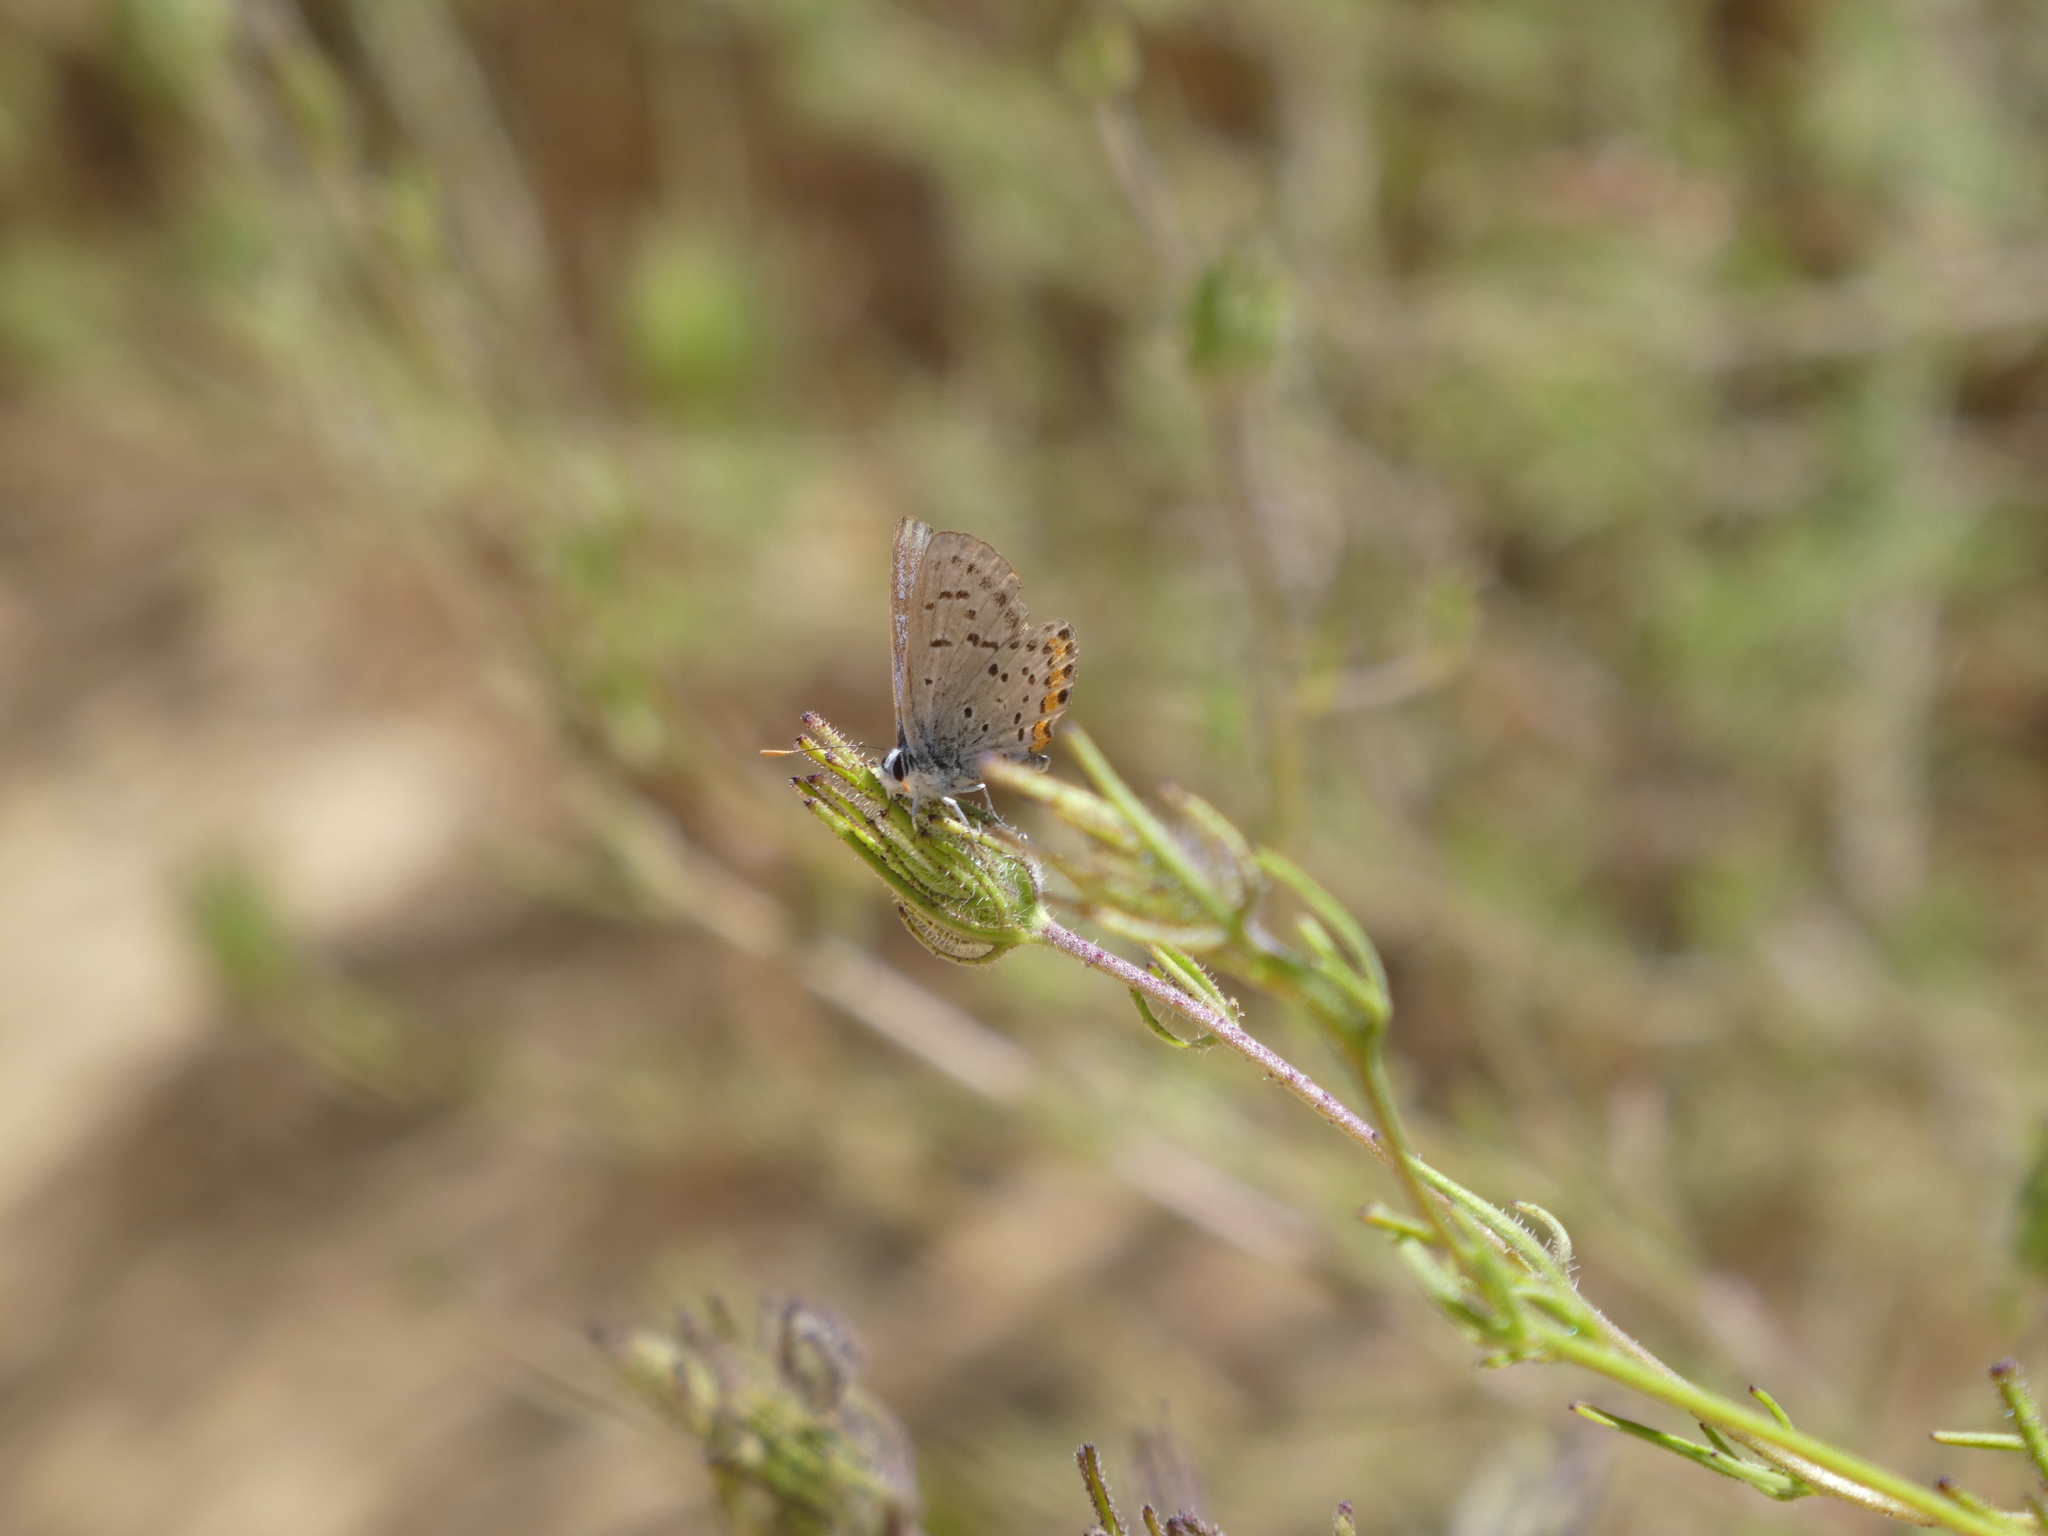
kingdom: Animalia
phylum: Arthropoda
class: Insecta
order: Lepidoptera
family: Lycaenidae
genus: Icaricia
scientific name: Icaricia acmon
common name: Acmon blue
